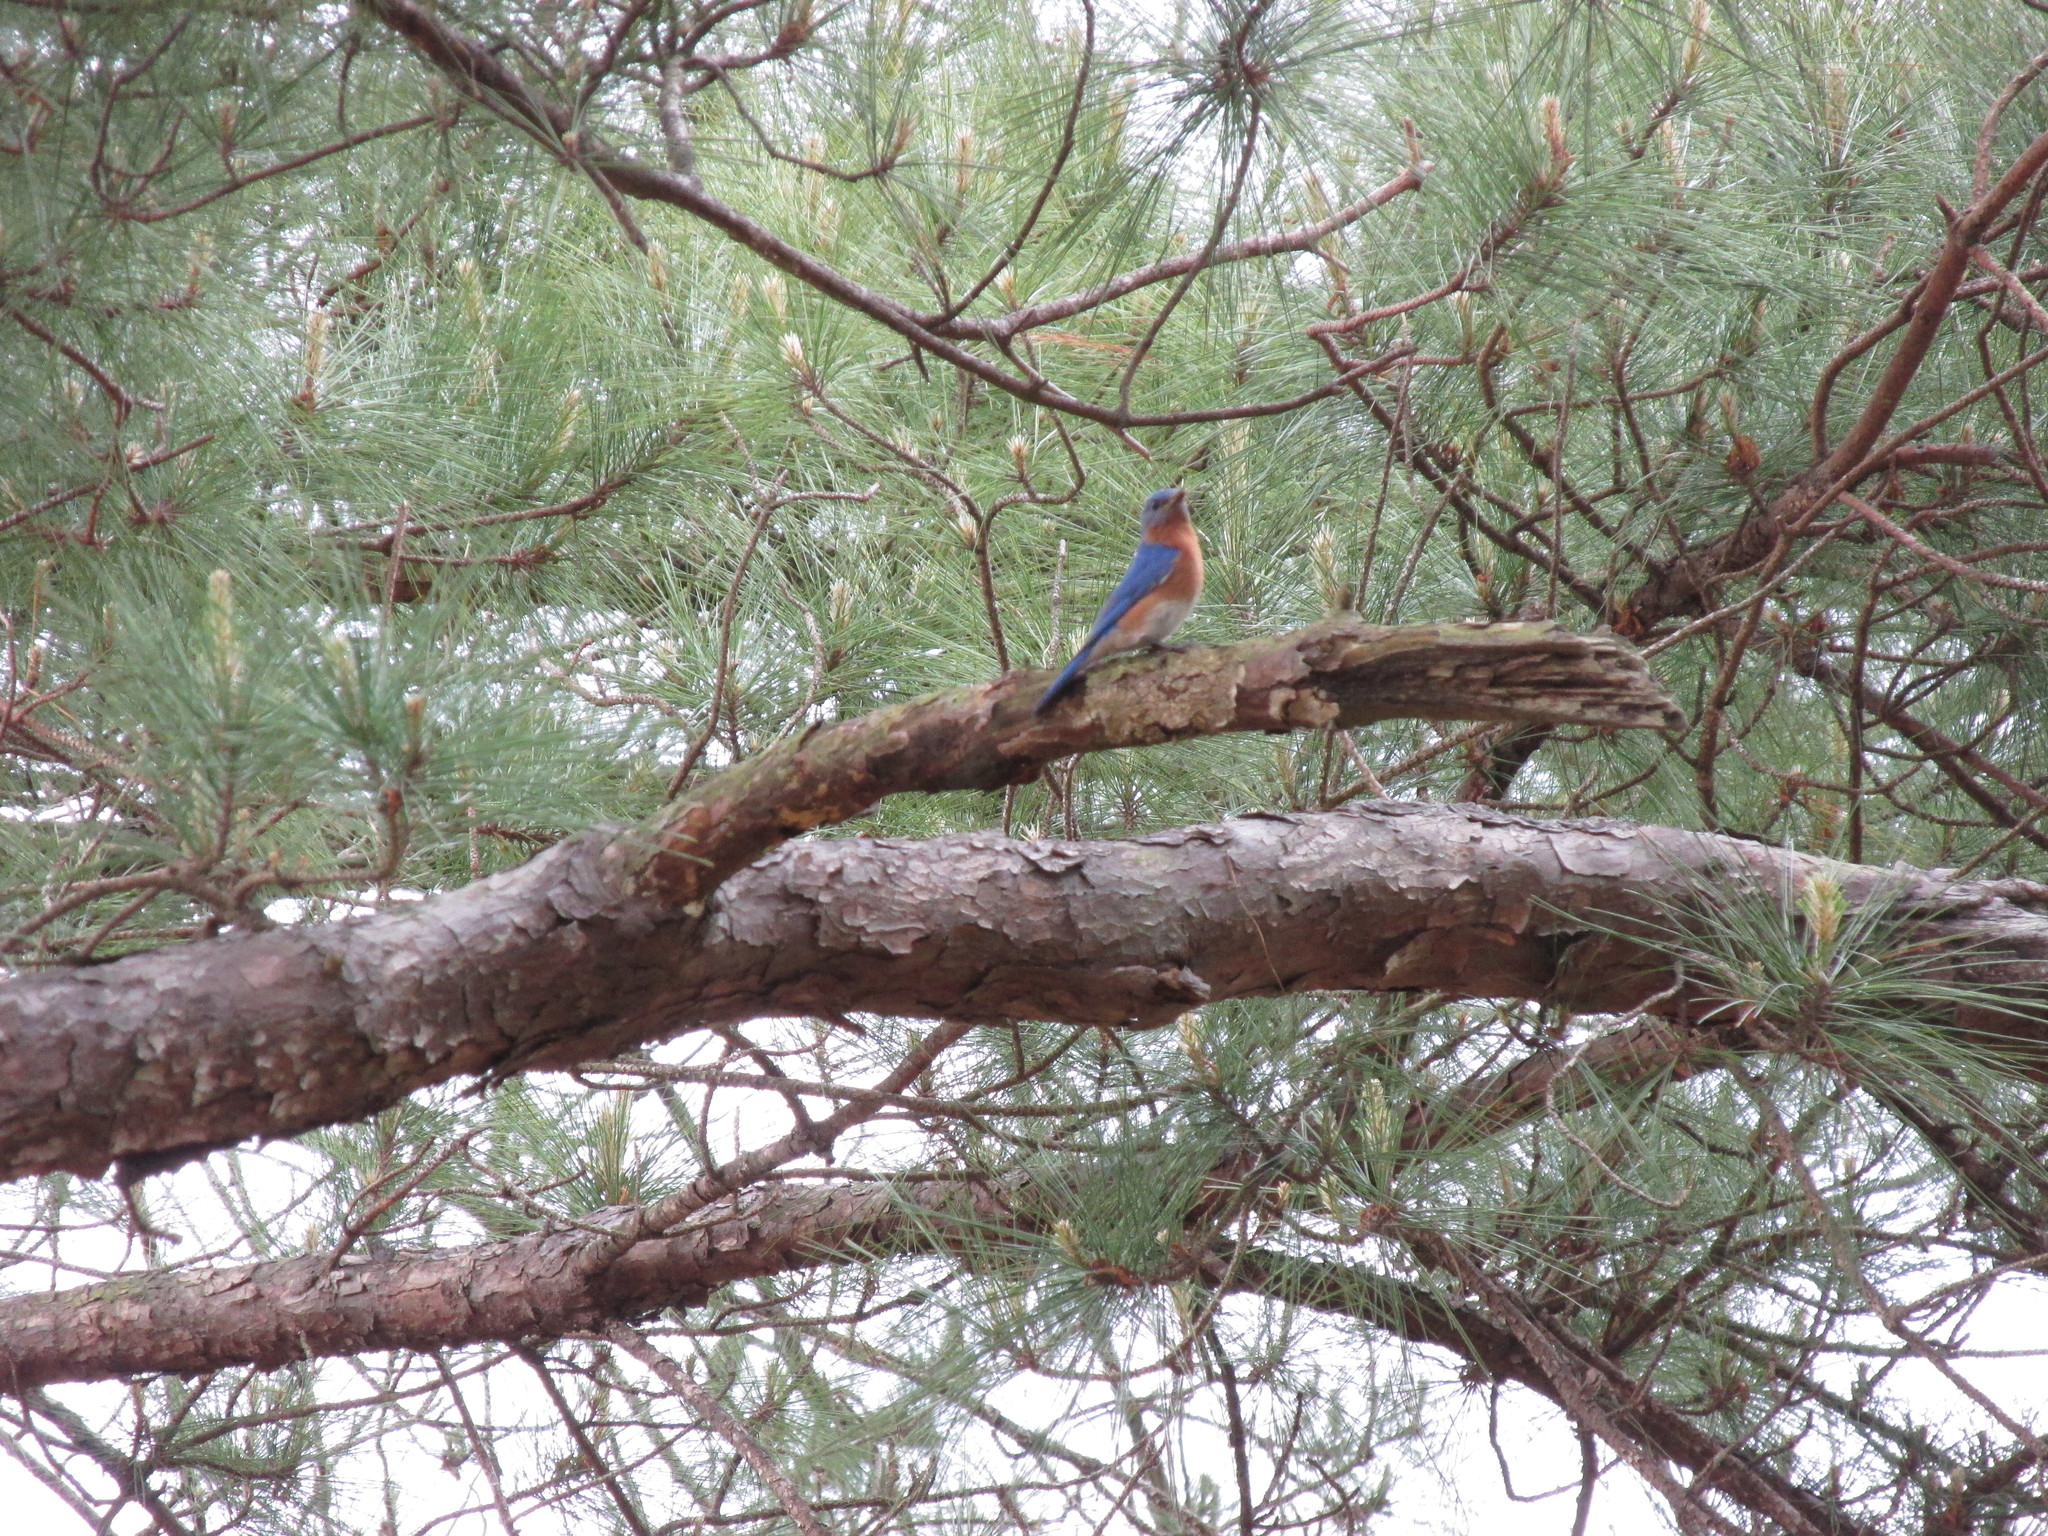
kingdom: Animalia
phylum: Chordata
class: Aves
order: Passeriformes
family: Turdidae
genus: Sialia
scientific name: Sialia sialis
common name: Eastern bluebird
